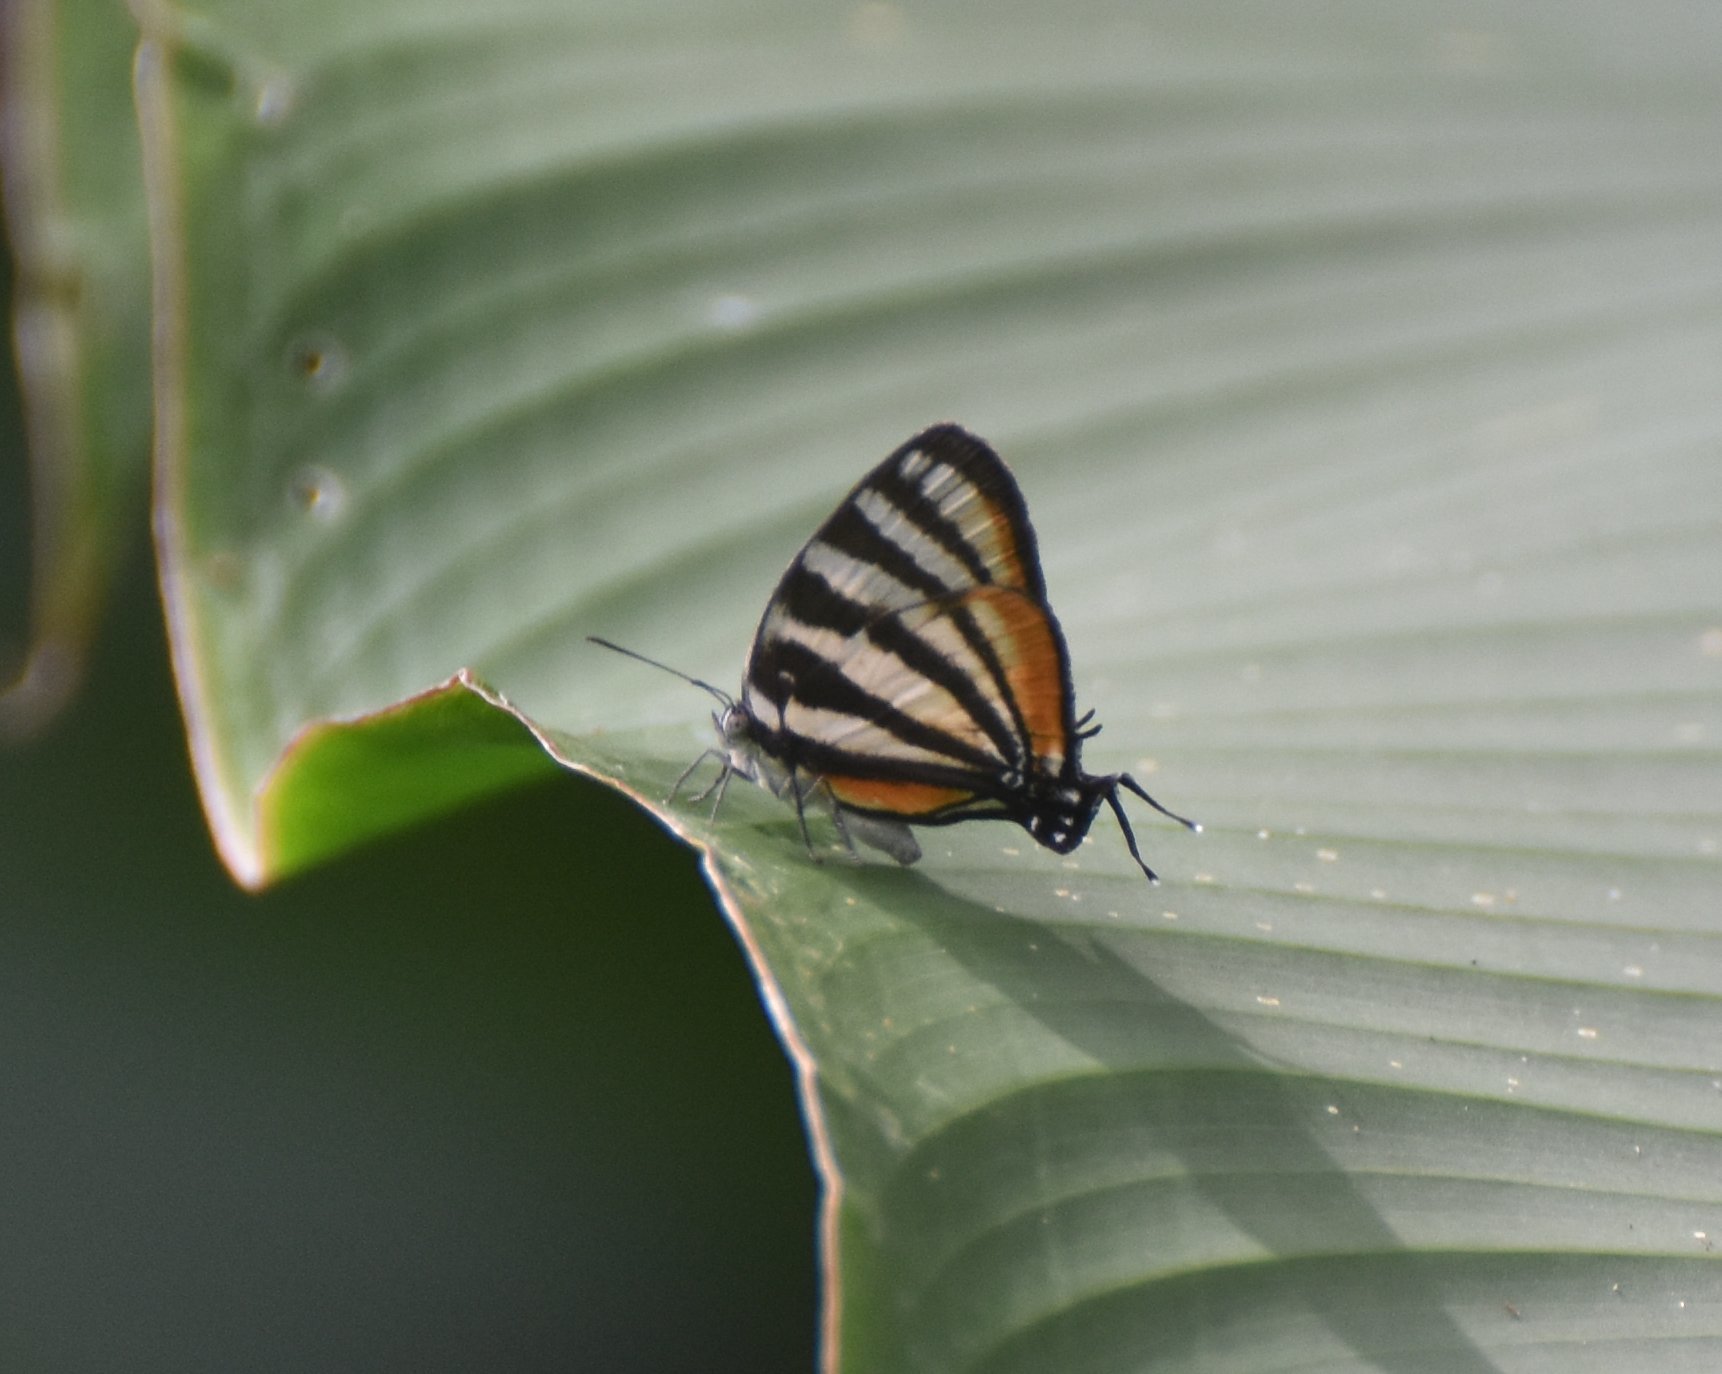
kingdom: Animalia
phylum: Arthropoda
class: Insecta
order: Lepidoptera
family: Lycaenidae
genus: Arawacus
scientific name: Arawacus lincoides
